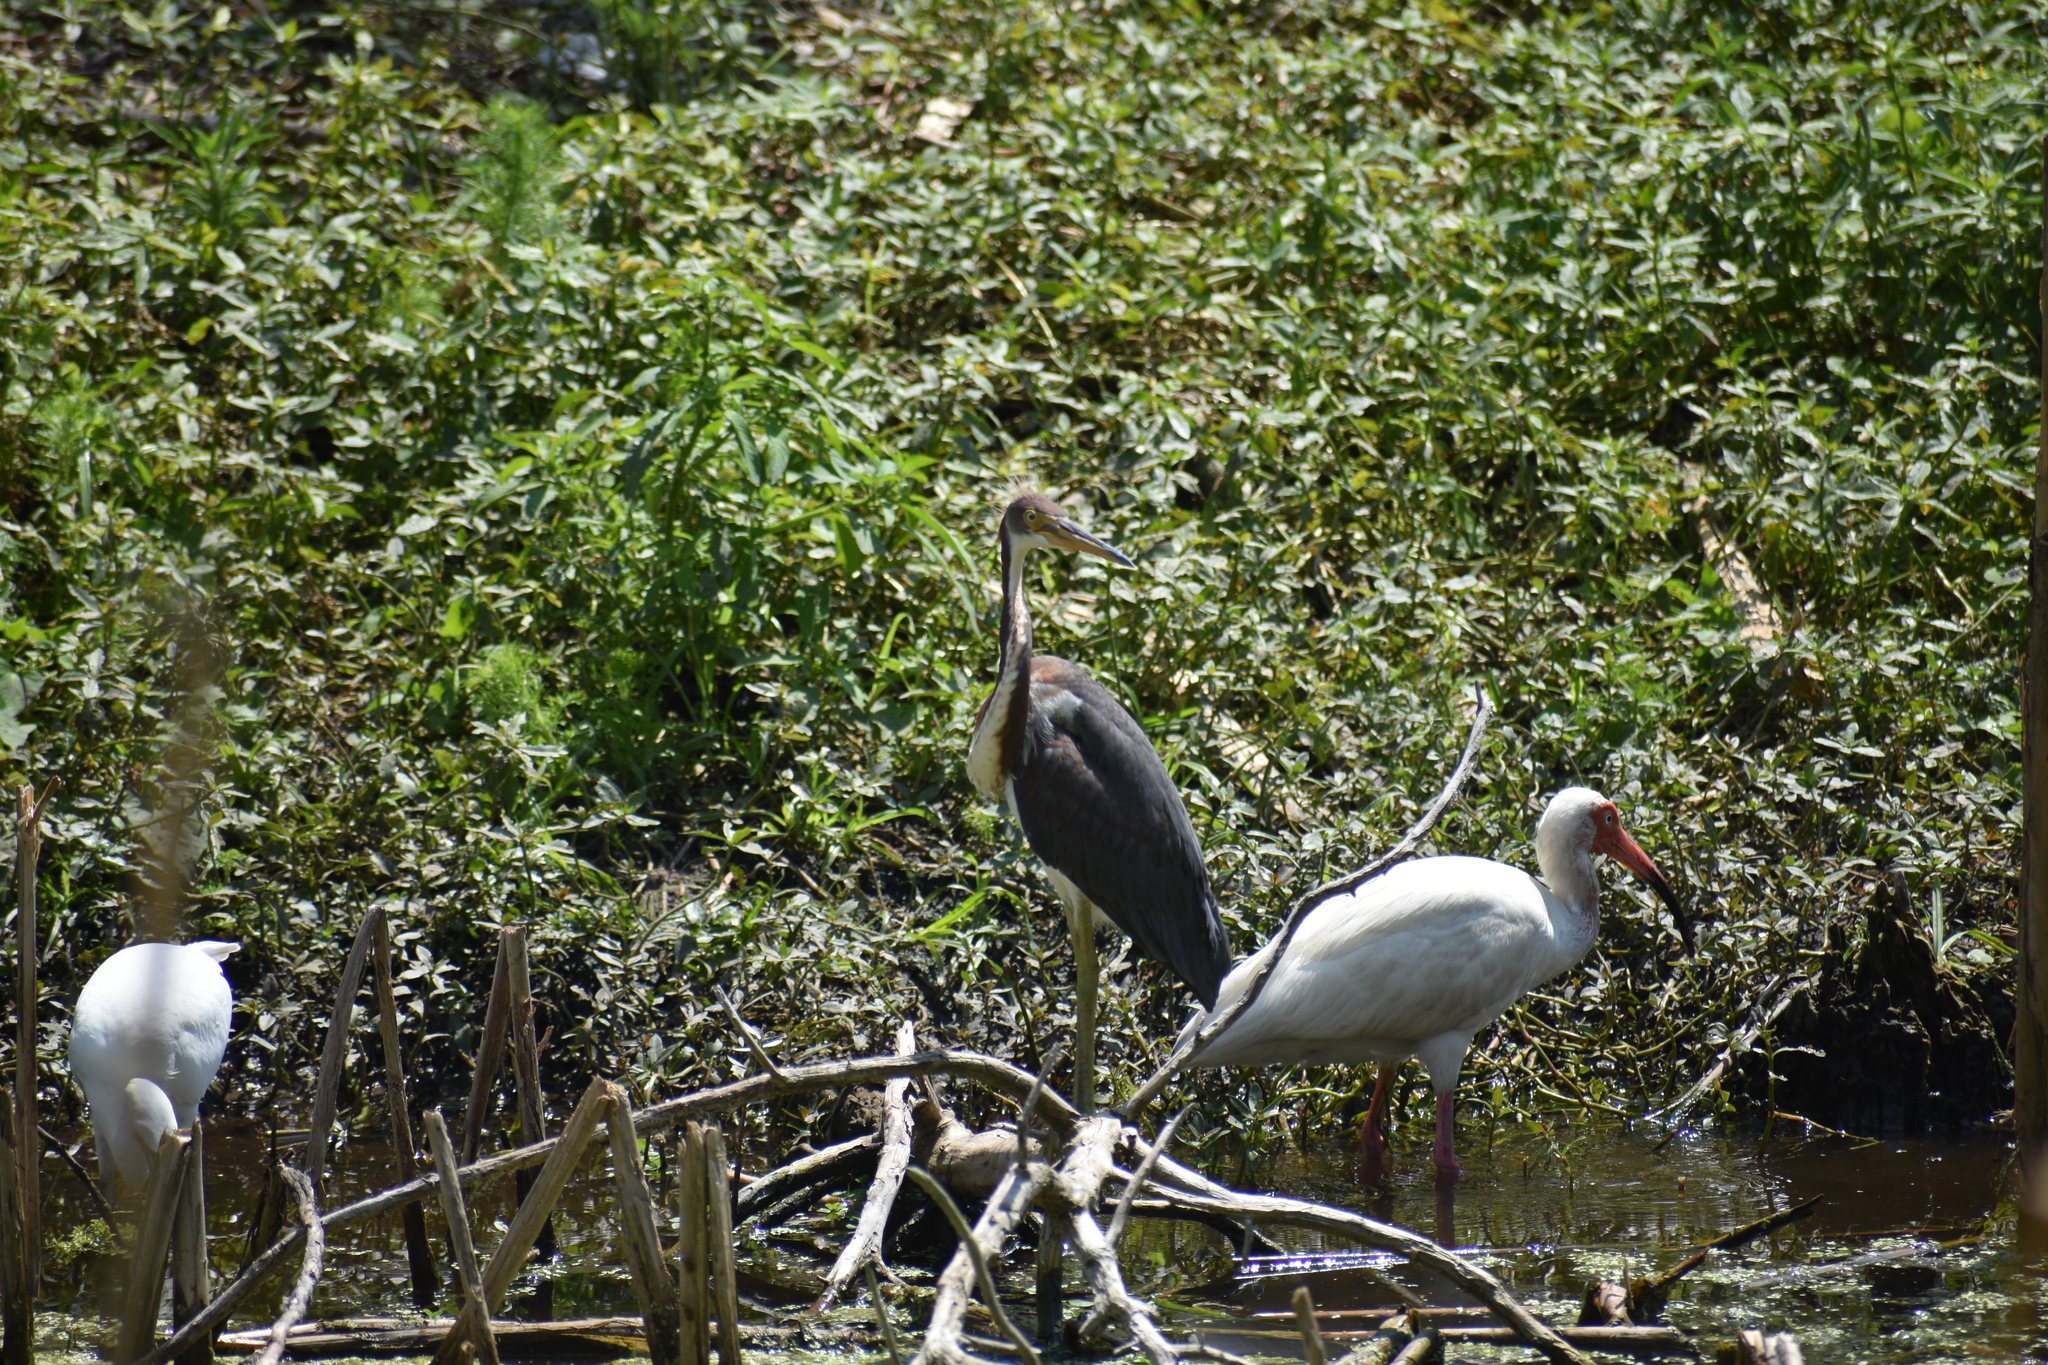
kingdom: Animalia
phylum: Chordata
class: Aves
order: Pelecaniformes
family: Ardeidae
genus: Egretta
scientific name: Egretta tricolor
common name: Tricolored heron
